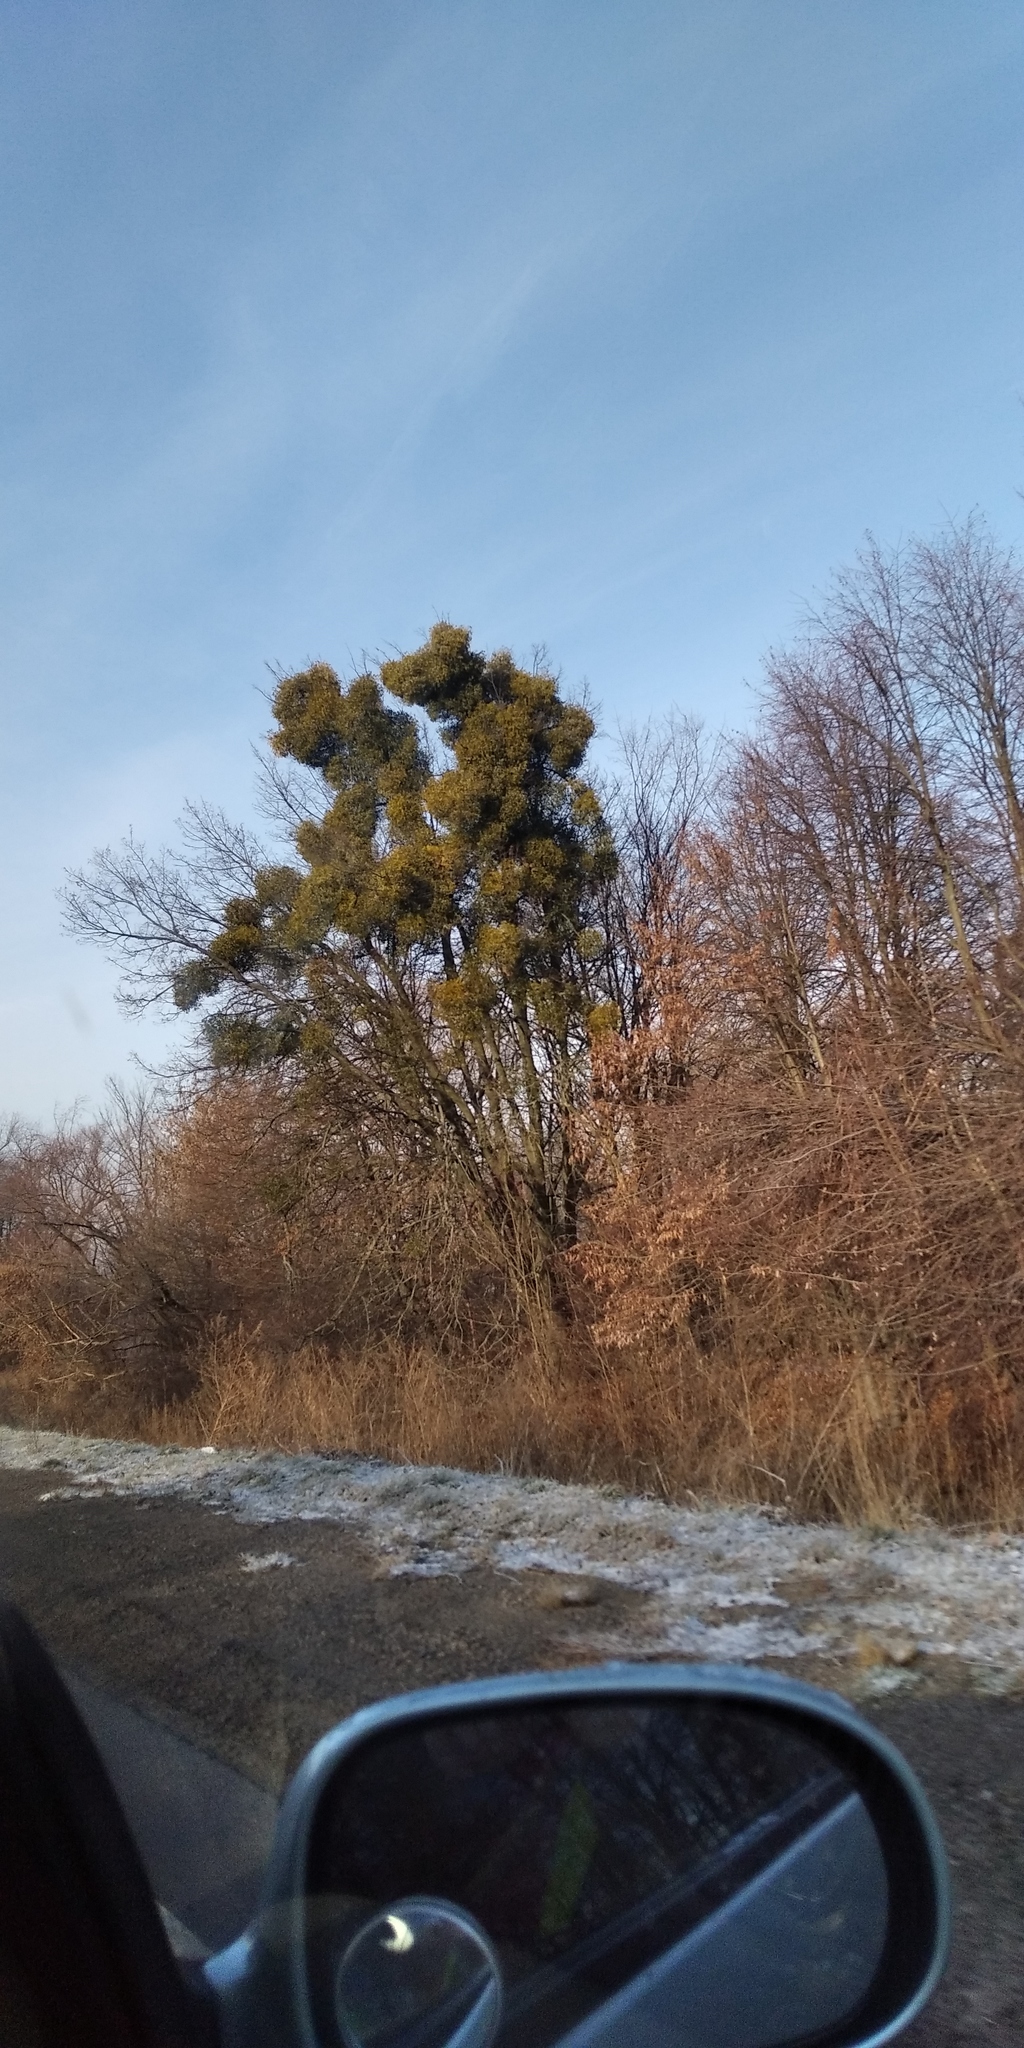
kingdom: Plantae
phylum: Tracheophyta
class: Magnoliopsida
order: Santalales
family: Viscaceae
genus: Viscum
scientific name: Viscum album
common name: Mistletoe
